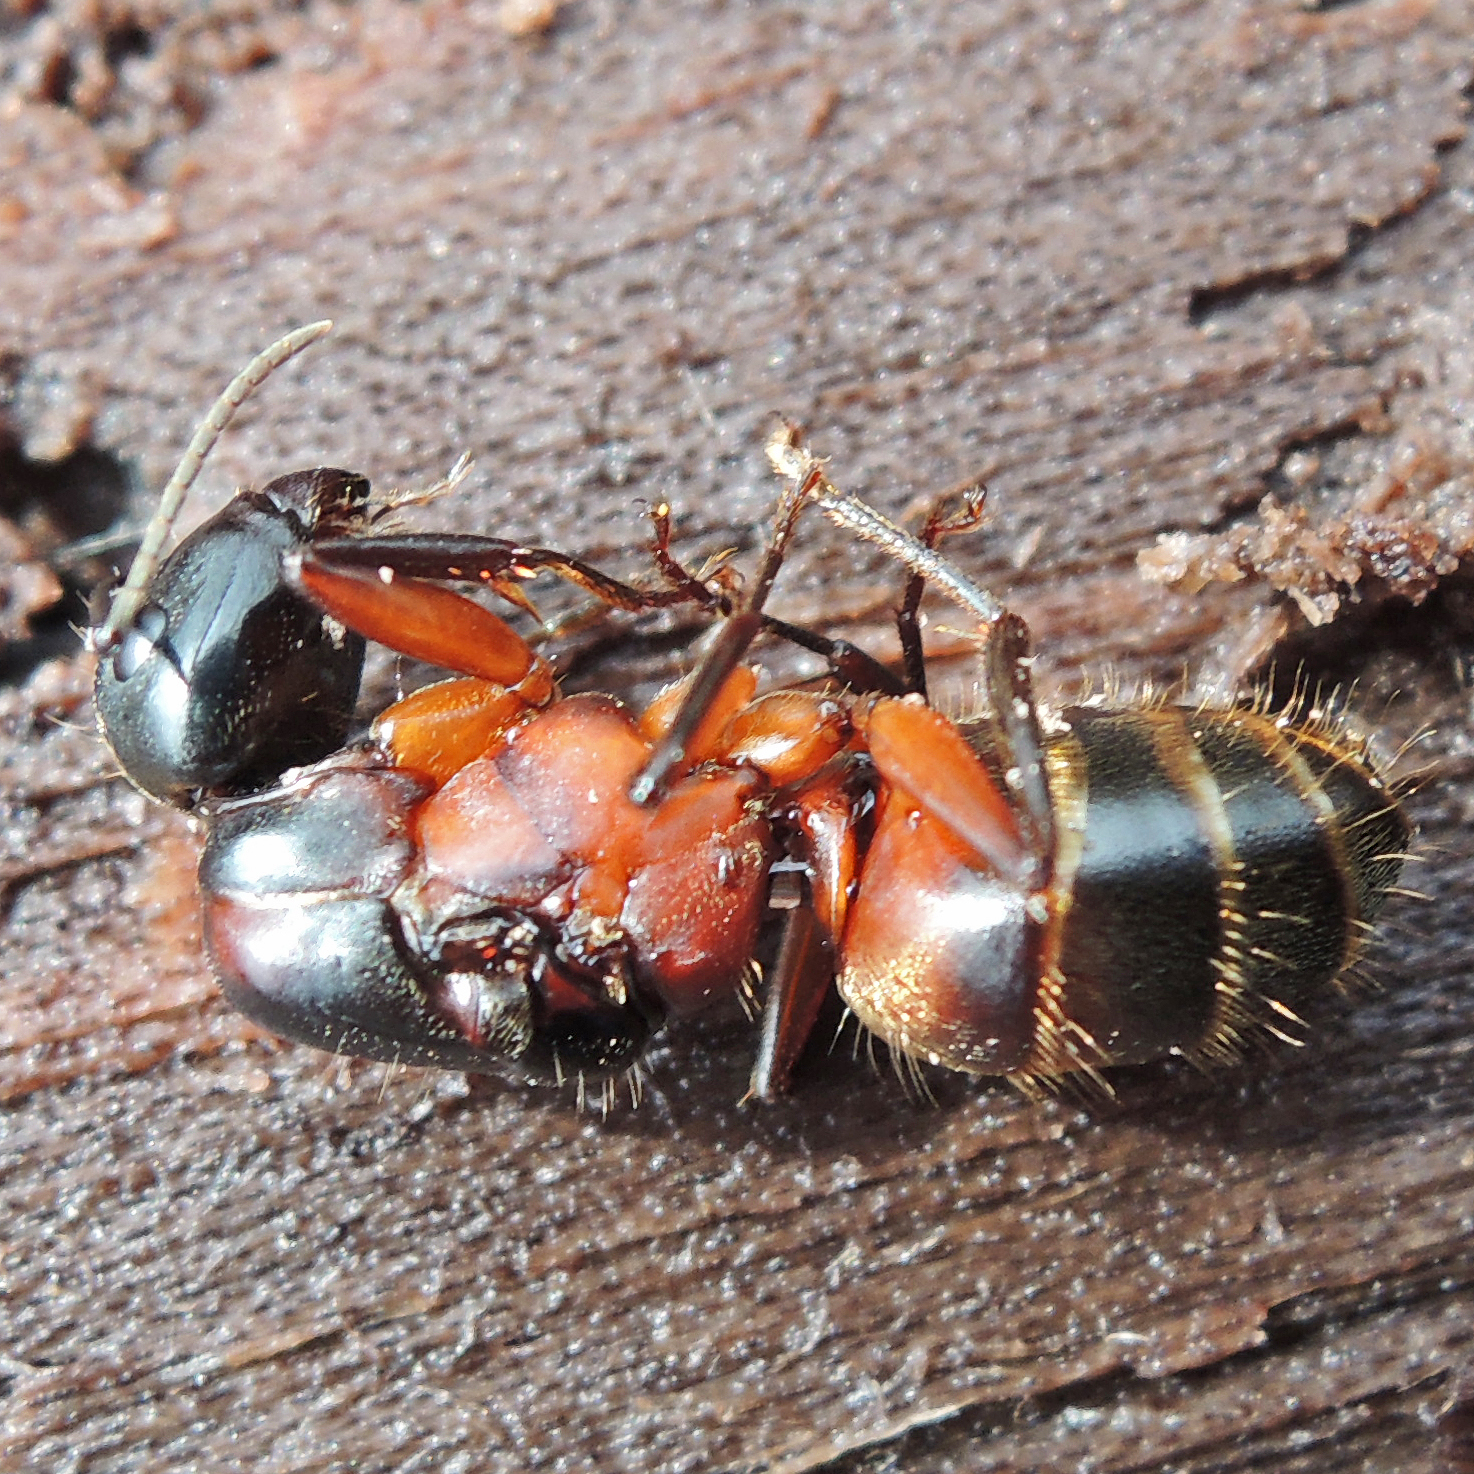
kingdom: Animalia
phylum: Arthropoda
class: Insecta
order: Hymenoptera
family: Formicidae
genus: Camponotus
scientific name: Camponotus chromaiodes
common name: Red carpenter ant
